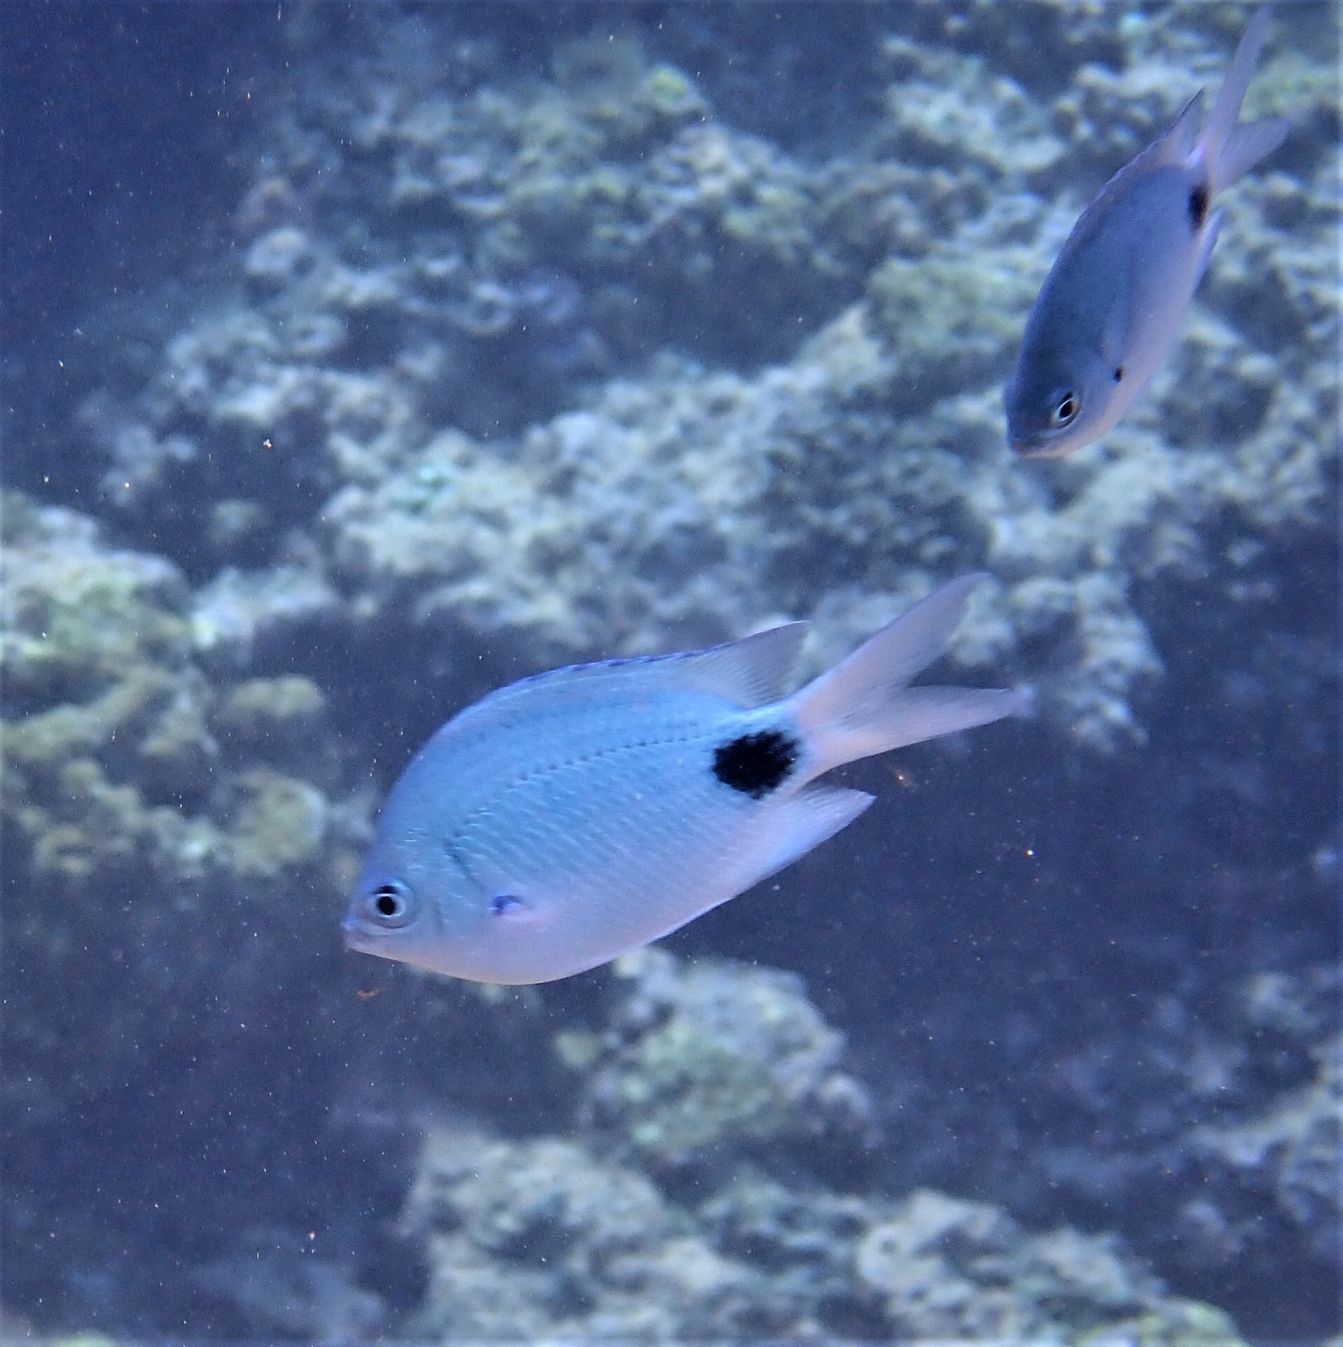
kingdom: Animalia
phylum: Chordata
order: Perciformes
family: Pomacentridae
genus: Abudefduf
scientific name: Abudefduf sparoides
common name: False-eye sergeant
